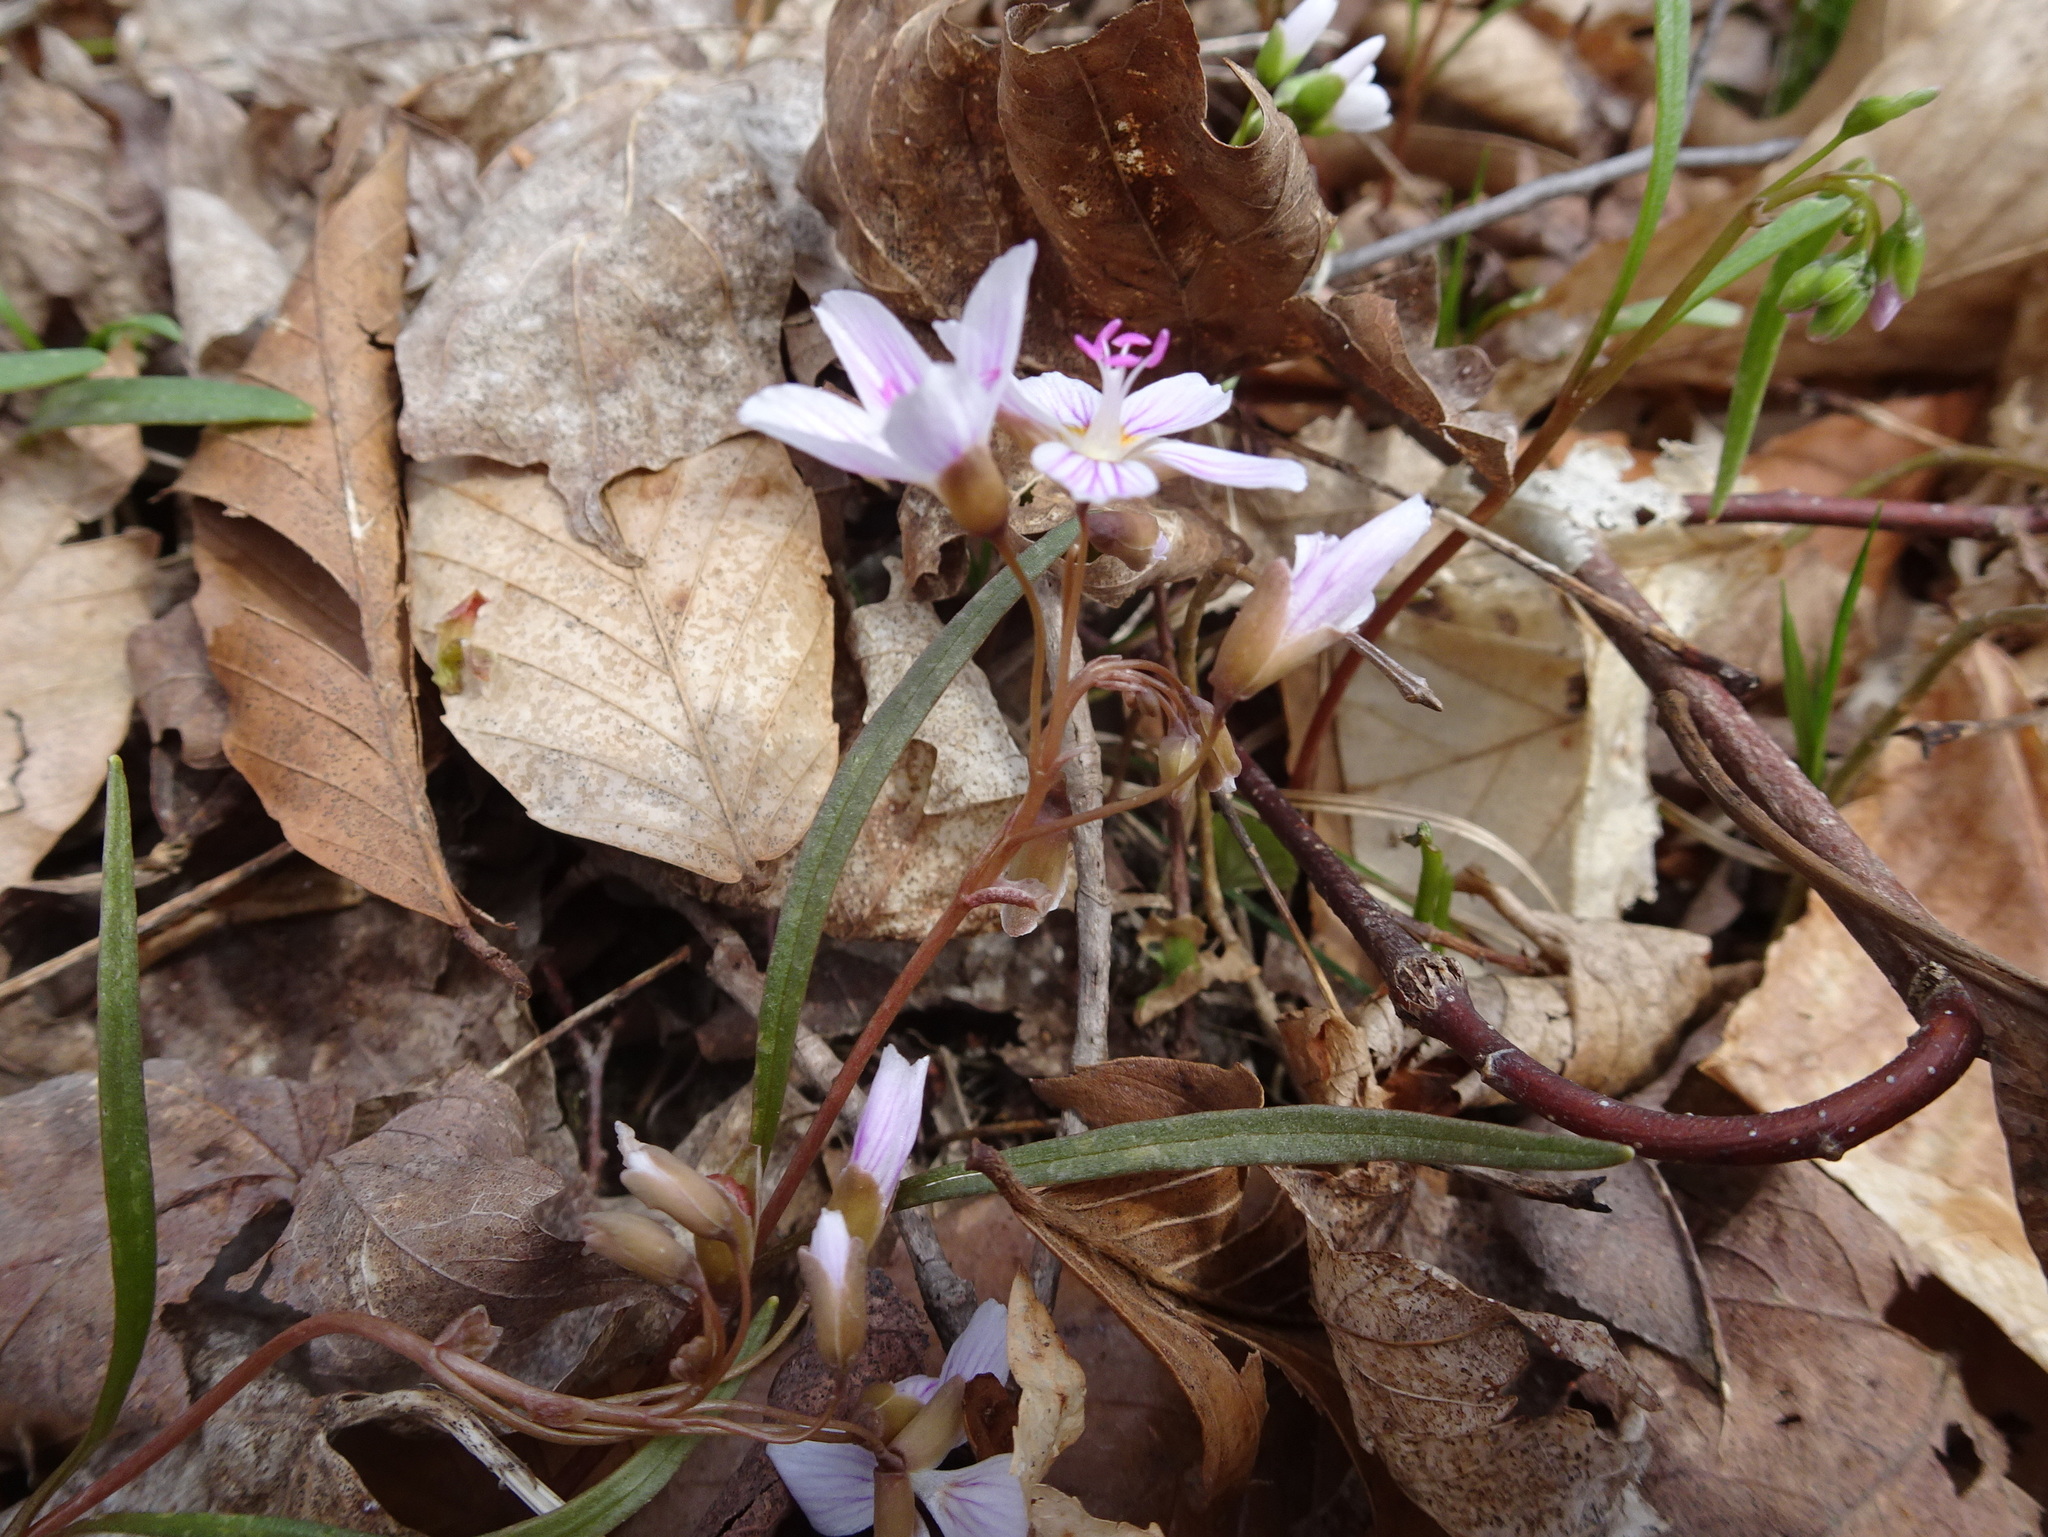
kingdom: Plantae
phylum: Tracheophyta
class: Magnoliopsida
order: Caryophyllales
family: Montiaceae
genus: Claytonia
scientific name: Claytonia virginica
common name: Virginia springbeauty
